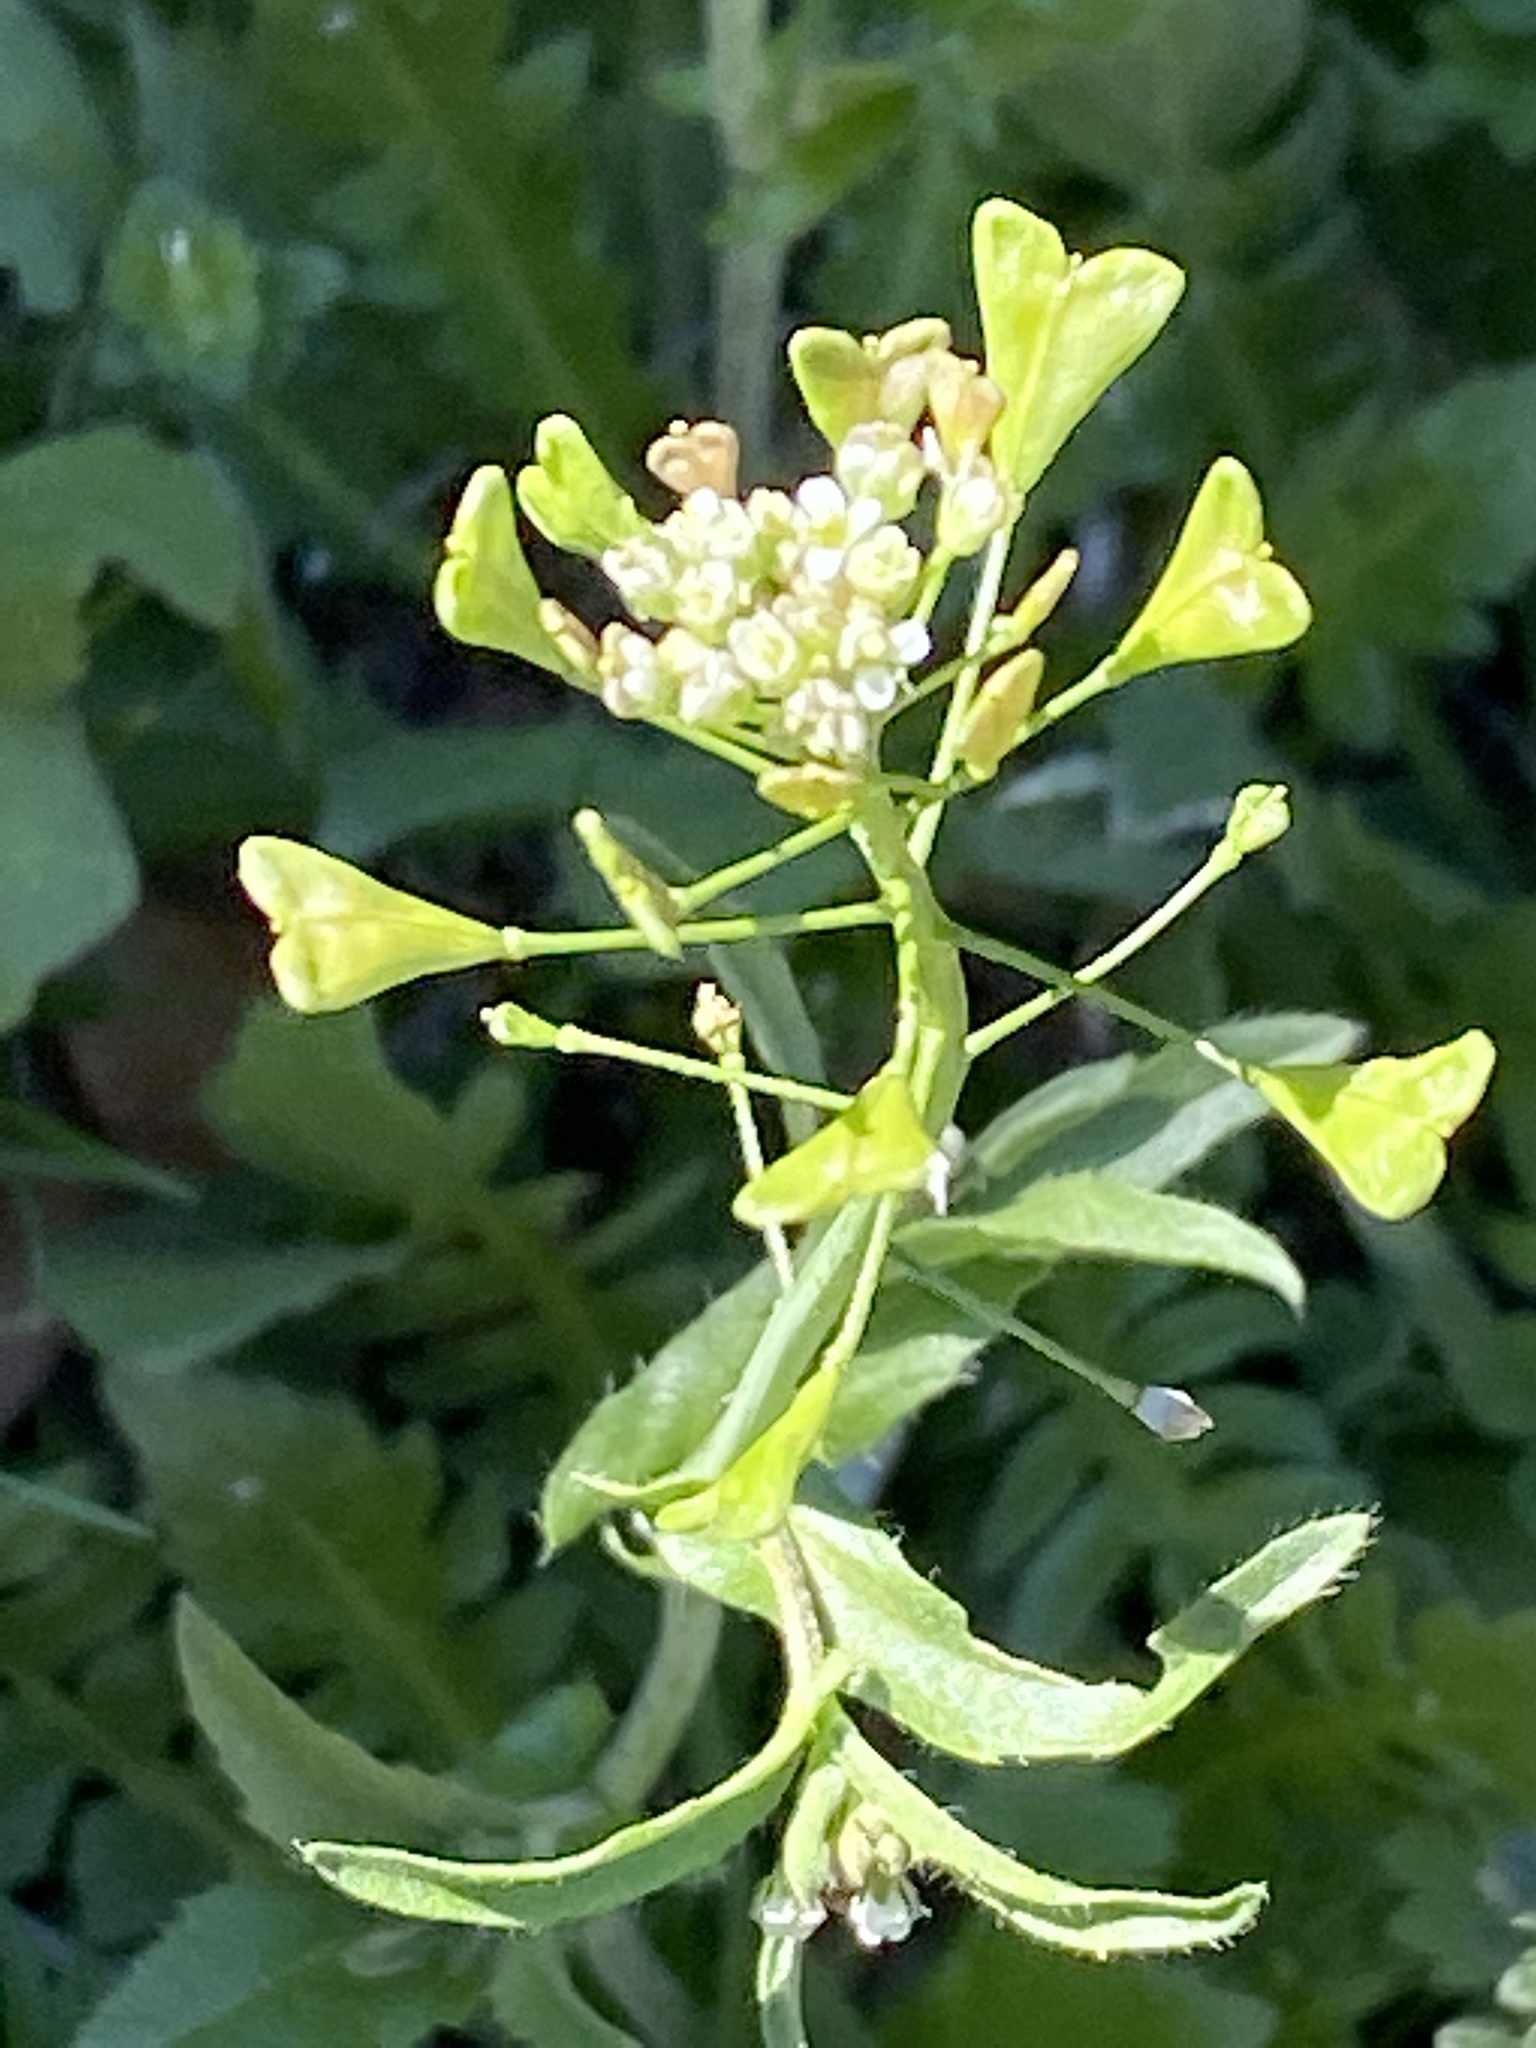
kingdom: Plantae
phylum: Tracheophyta
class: Magnoliopsida
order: Brassicales
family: Brassicaceae
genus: Capsella
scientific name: Capsella bursa-pastoris
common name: Shepherd's purse
